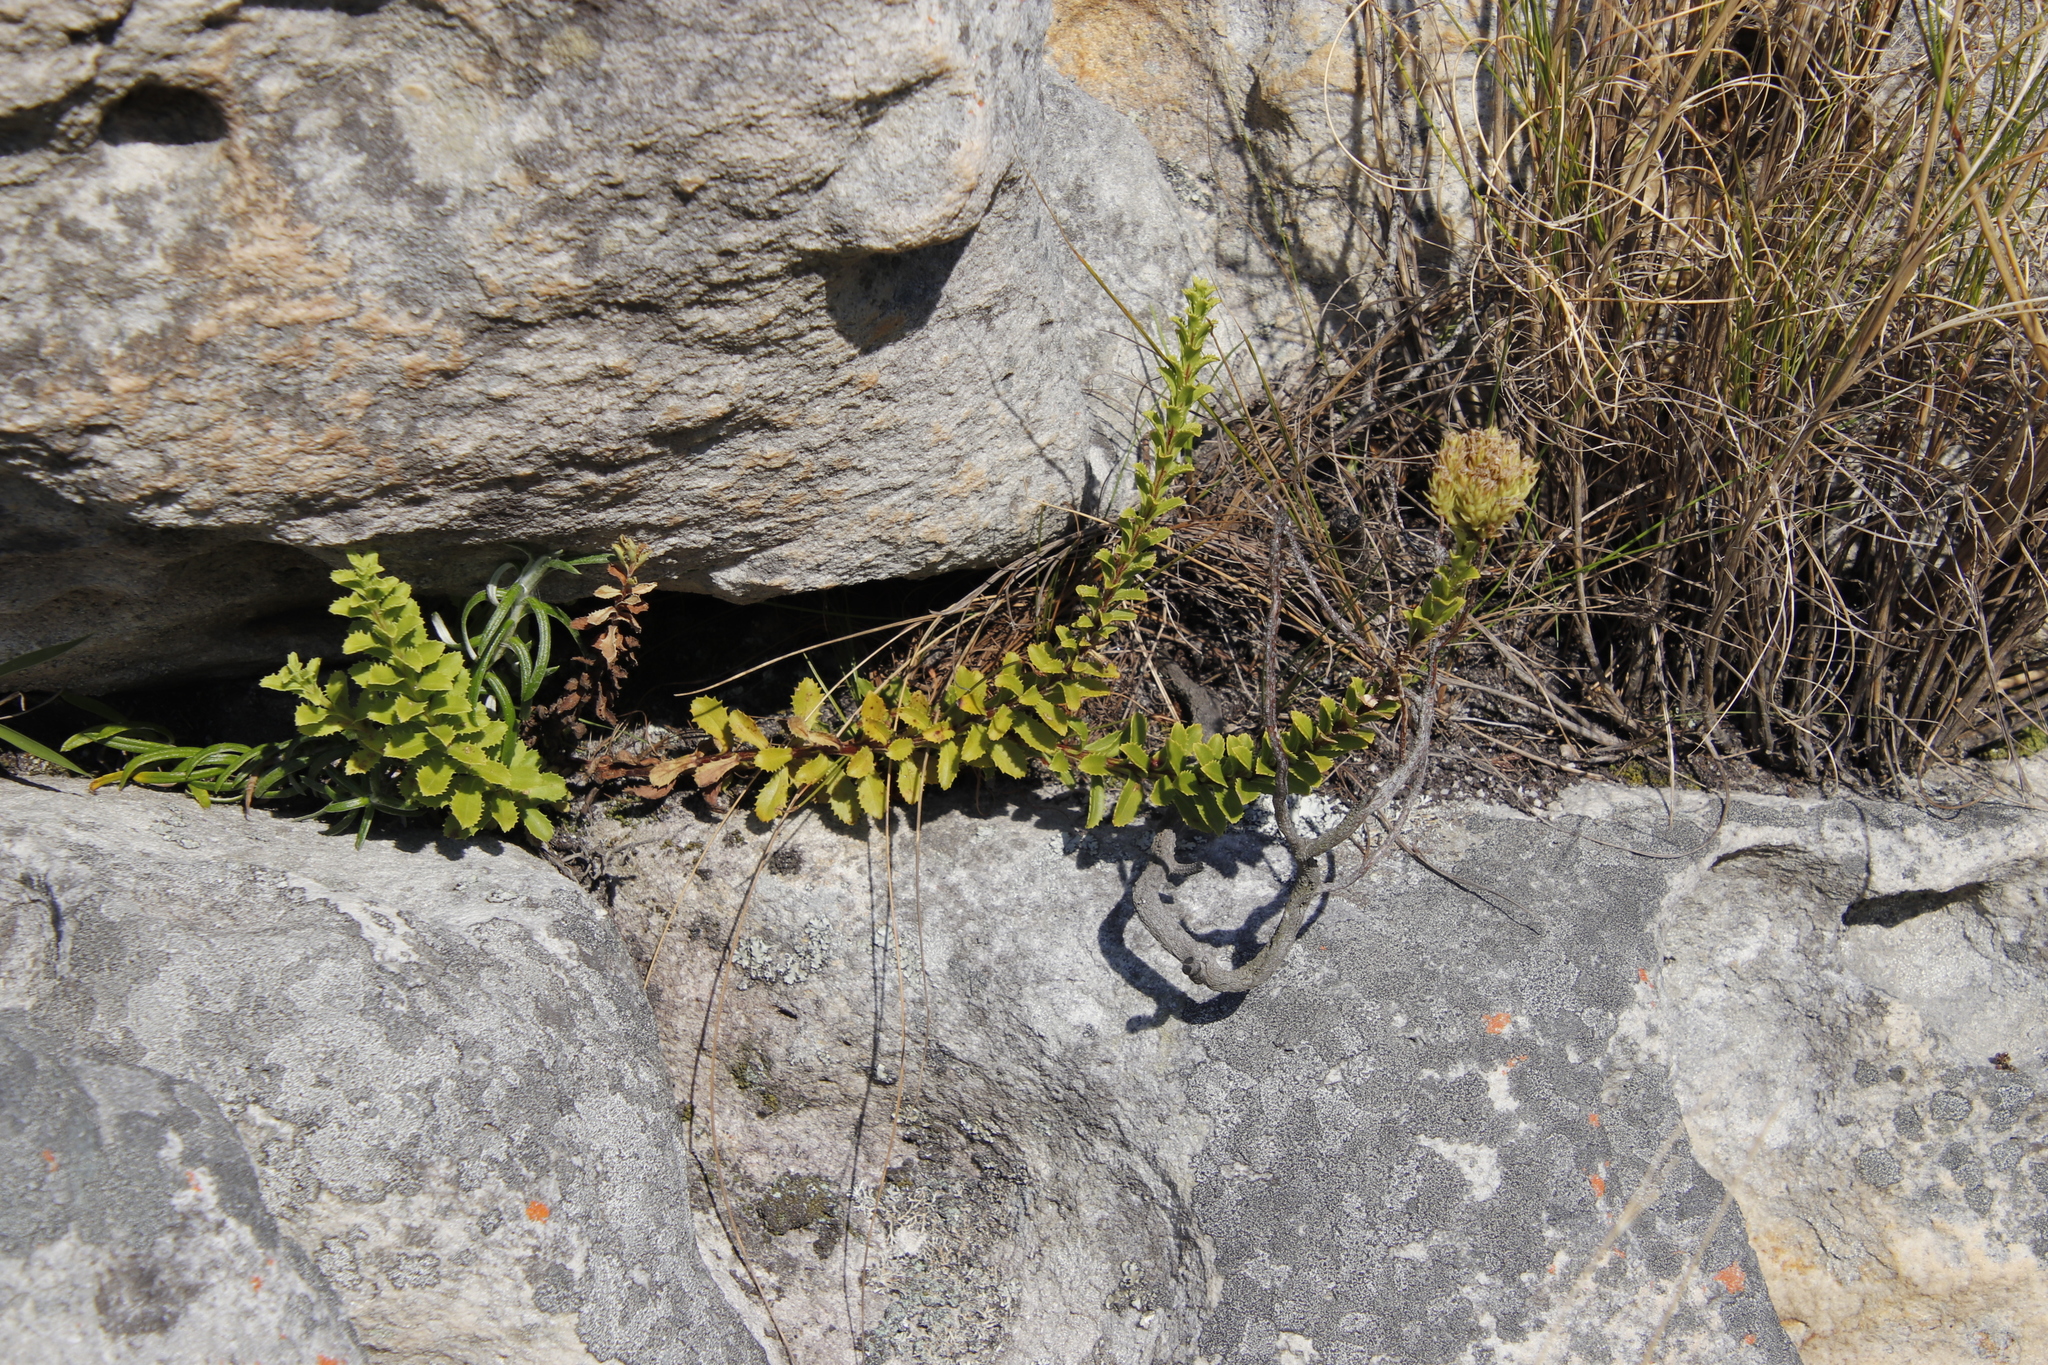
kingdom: Plantae
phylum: Tracheophyta
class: Magnoliopsida
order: Lamiales
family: Scrophulariaceae
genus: Pseudoselago
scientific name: Pseudoselago serrata
